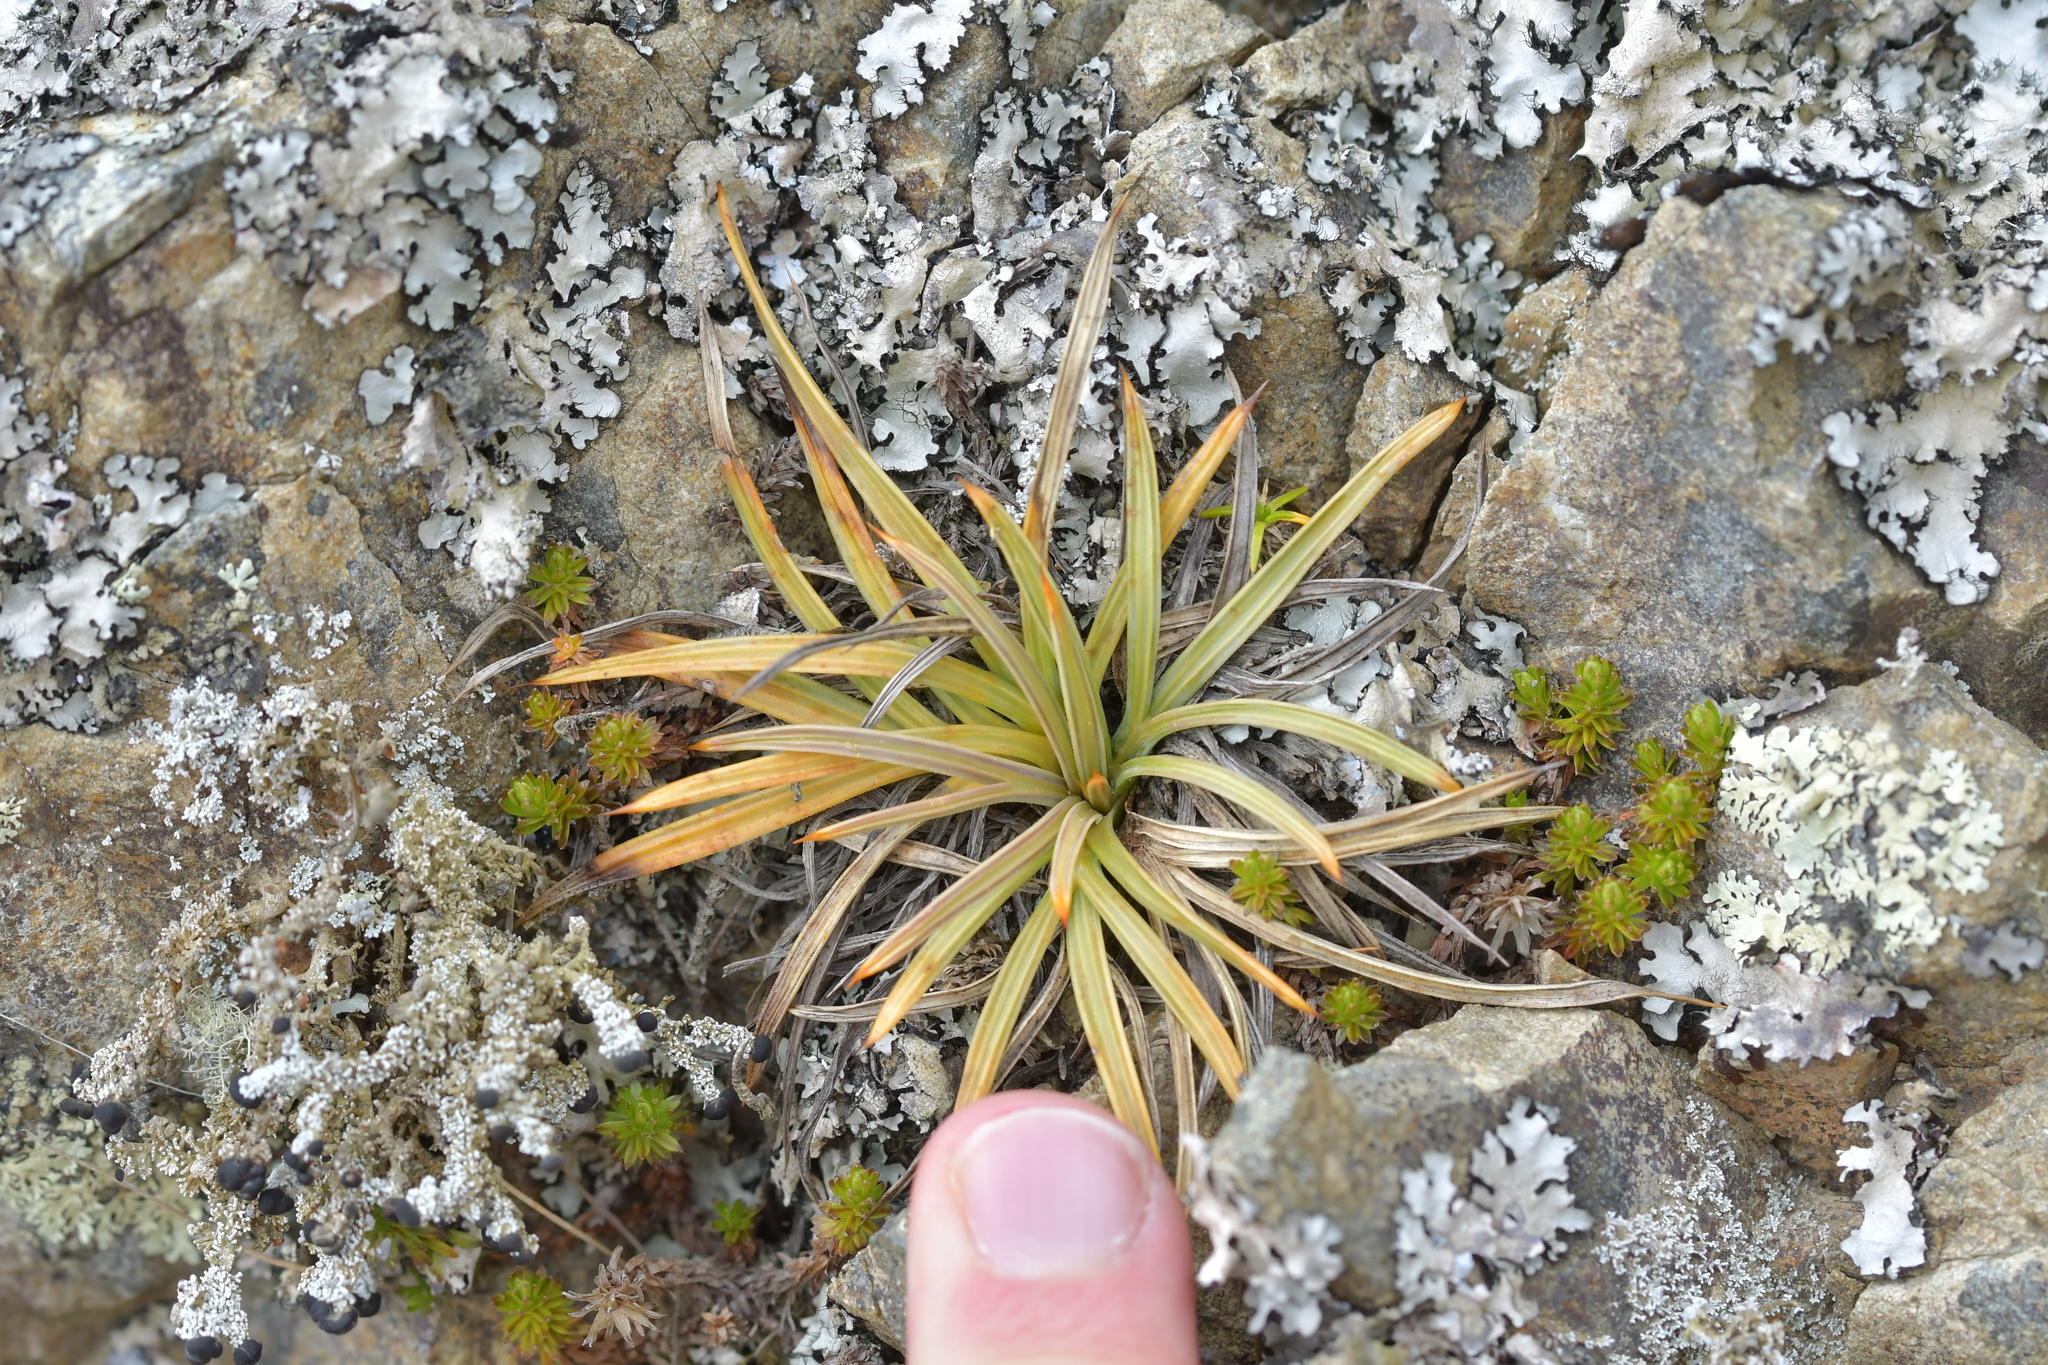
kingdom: Plantae
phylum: Tracheophyta
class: Magnoliopsida
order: Apiales
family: Apiaceae
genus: Aciphylla
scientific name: Aciphylla squarrosa
